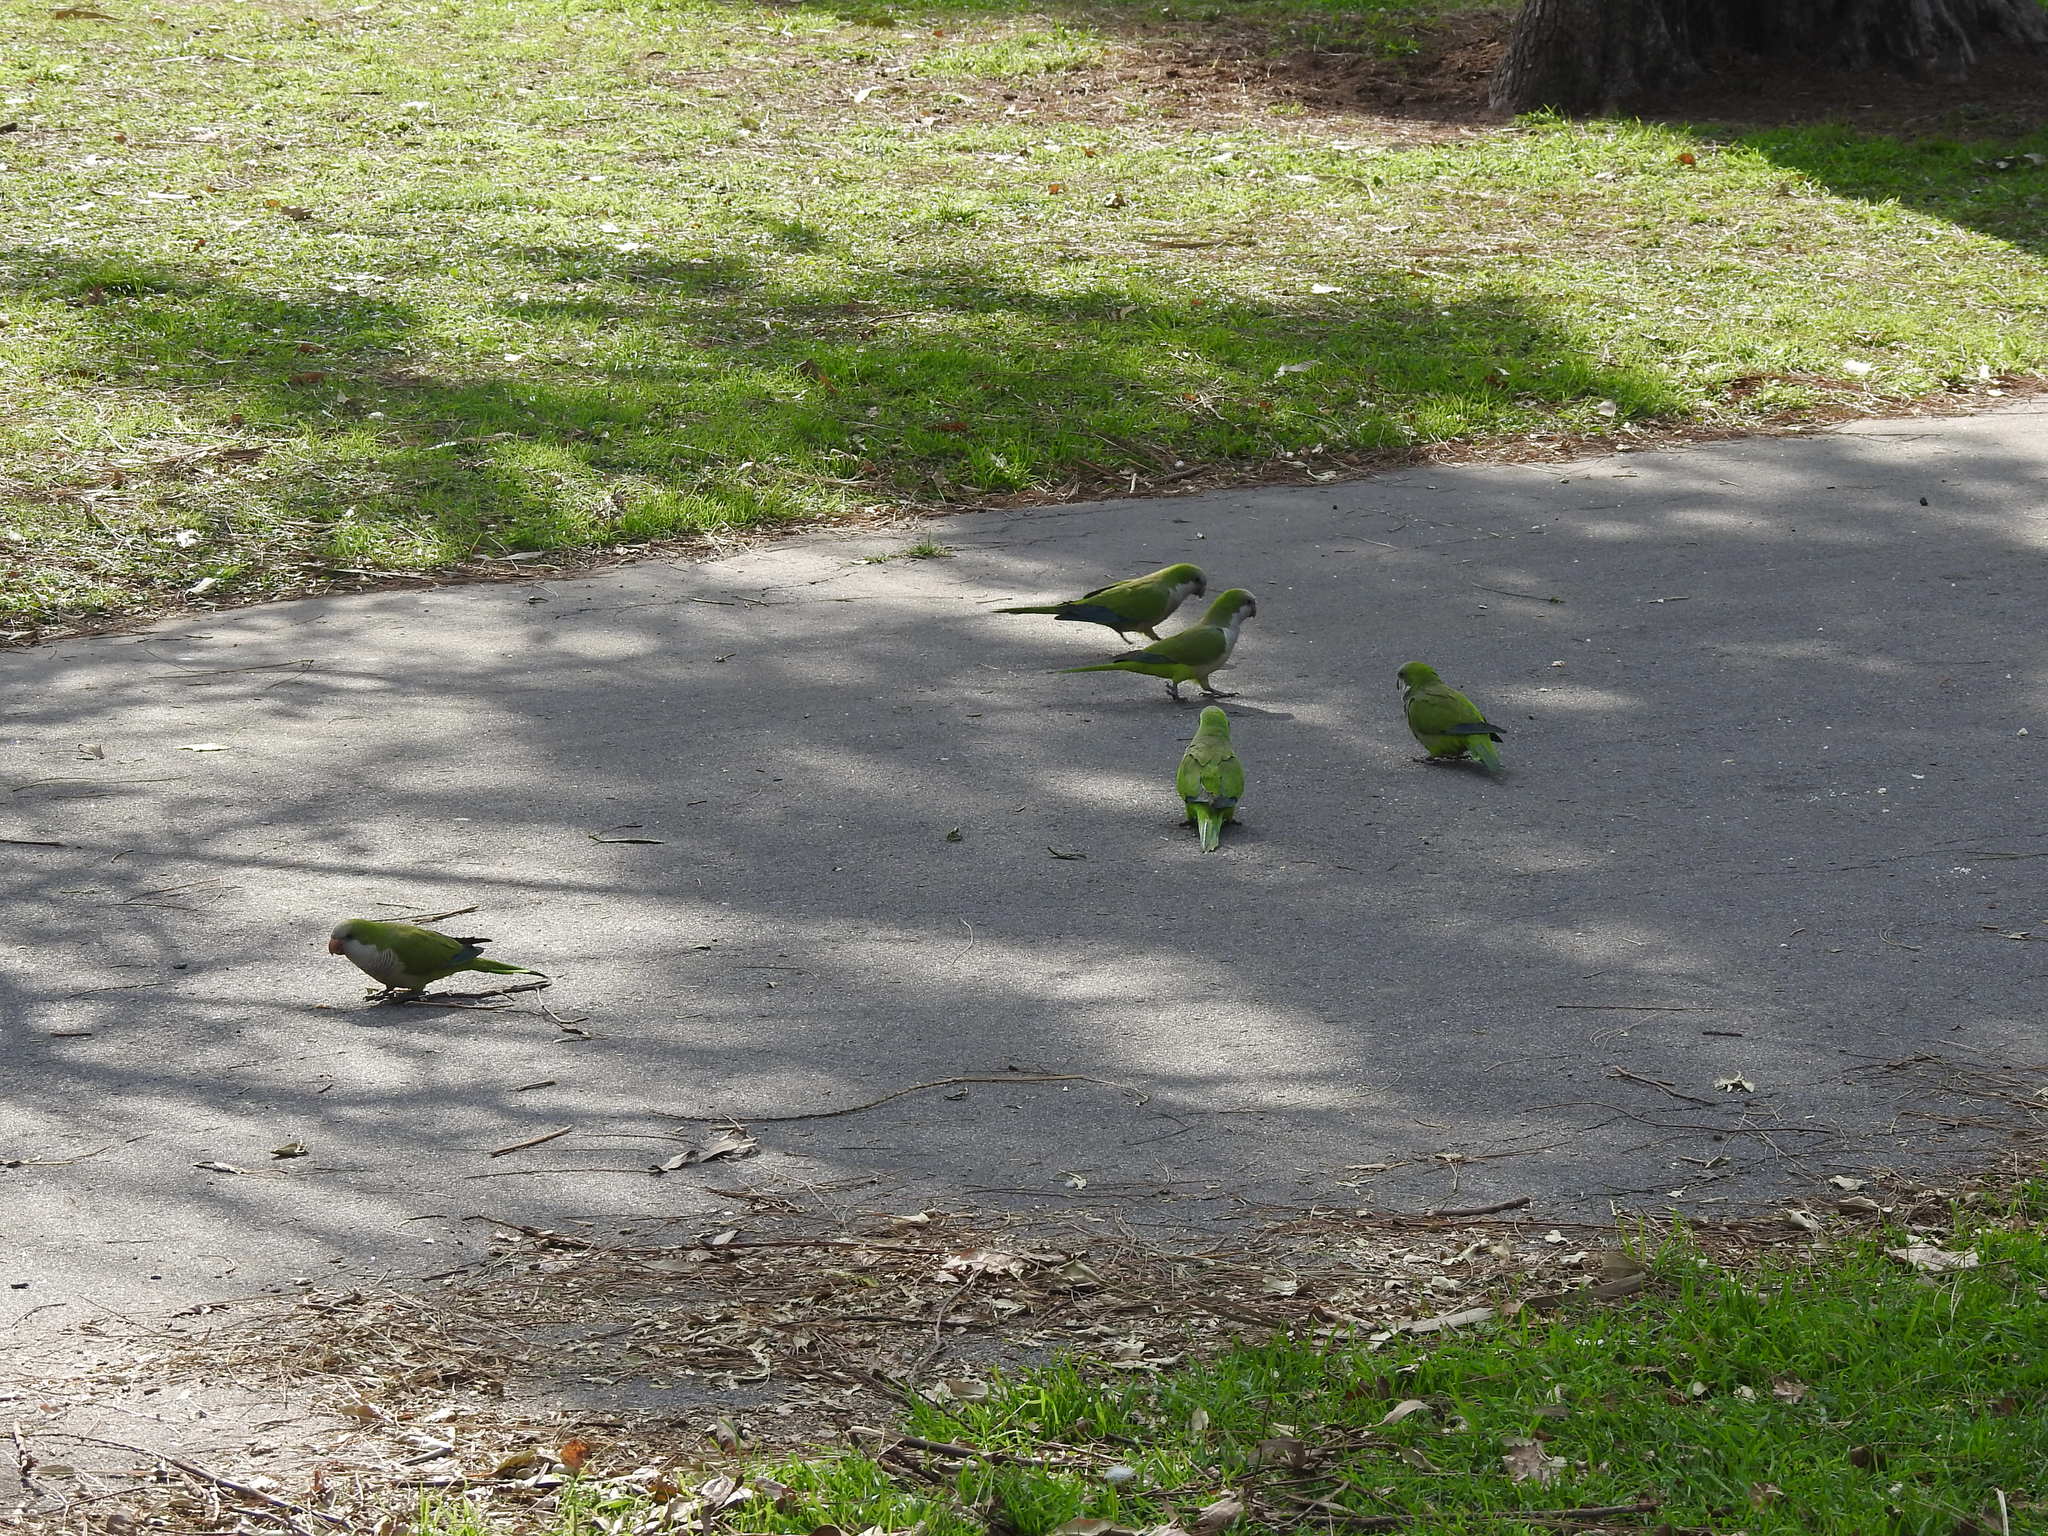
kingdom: Animalia
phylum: Chordata
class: Aves
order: Psittaciformes
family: Psittacidae
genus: Myiopsitta
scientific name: Myiopsitta monachus
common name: Monk parakeet
